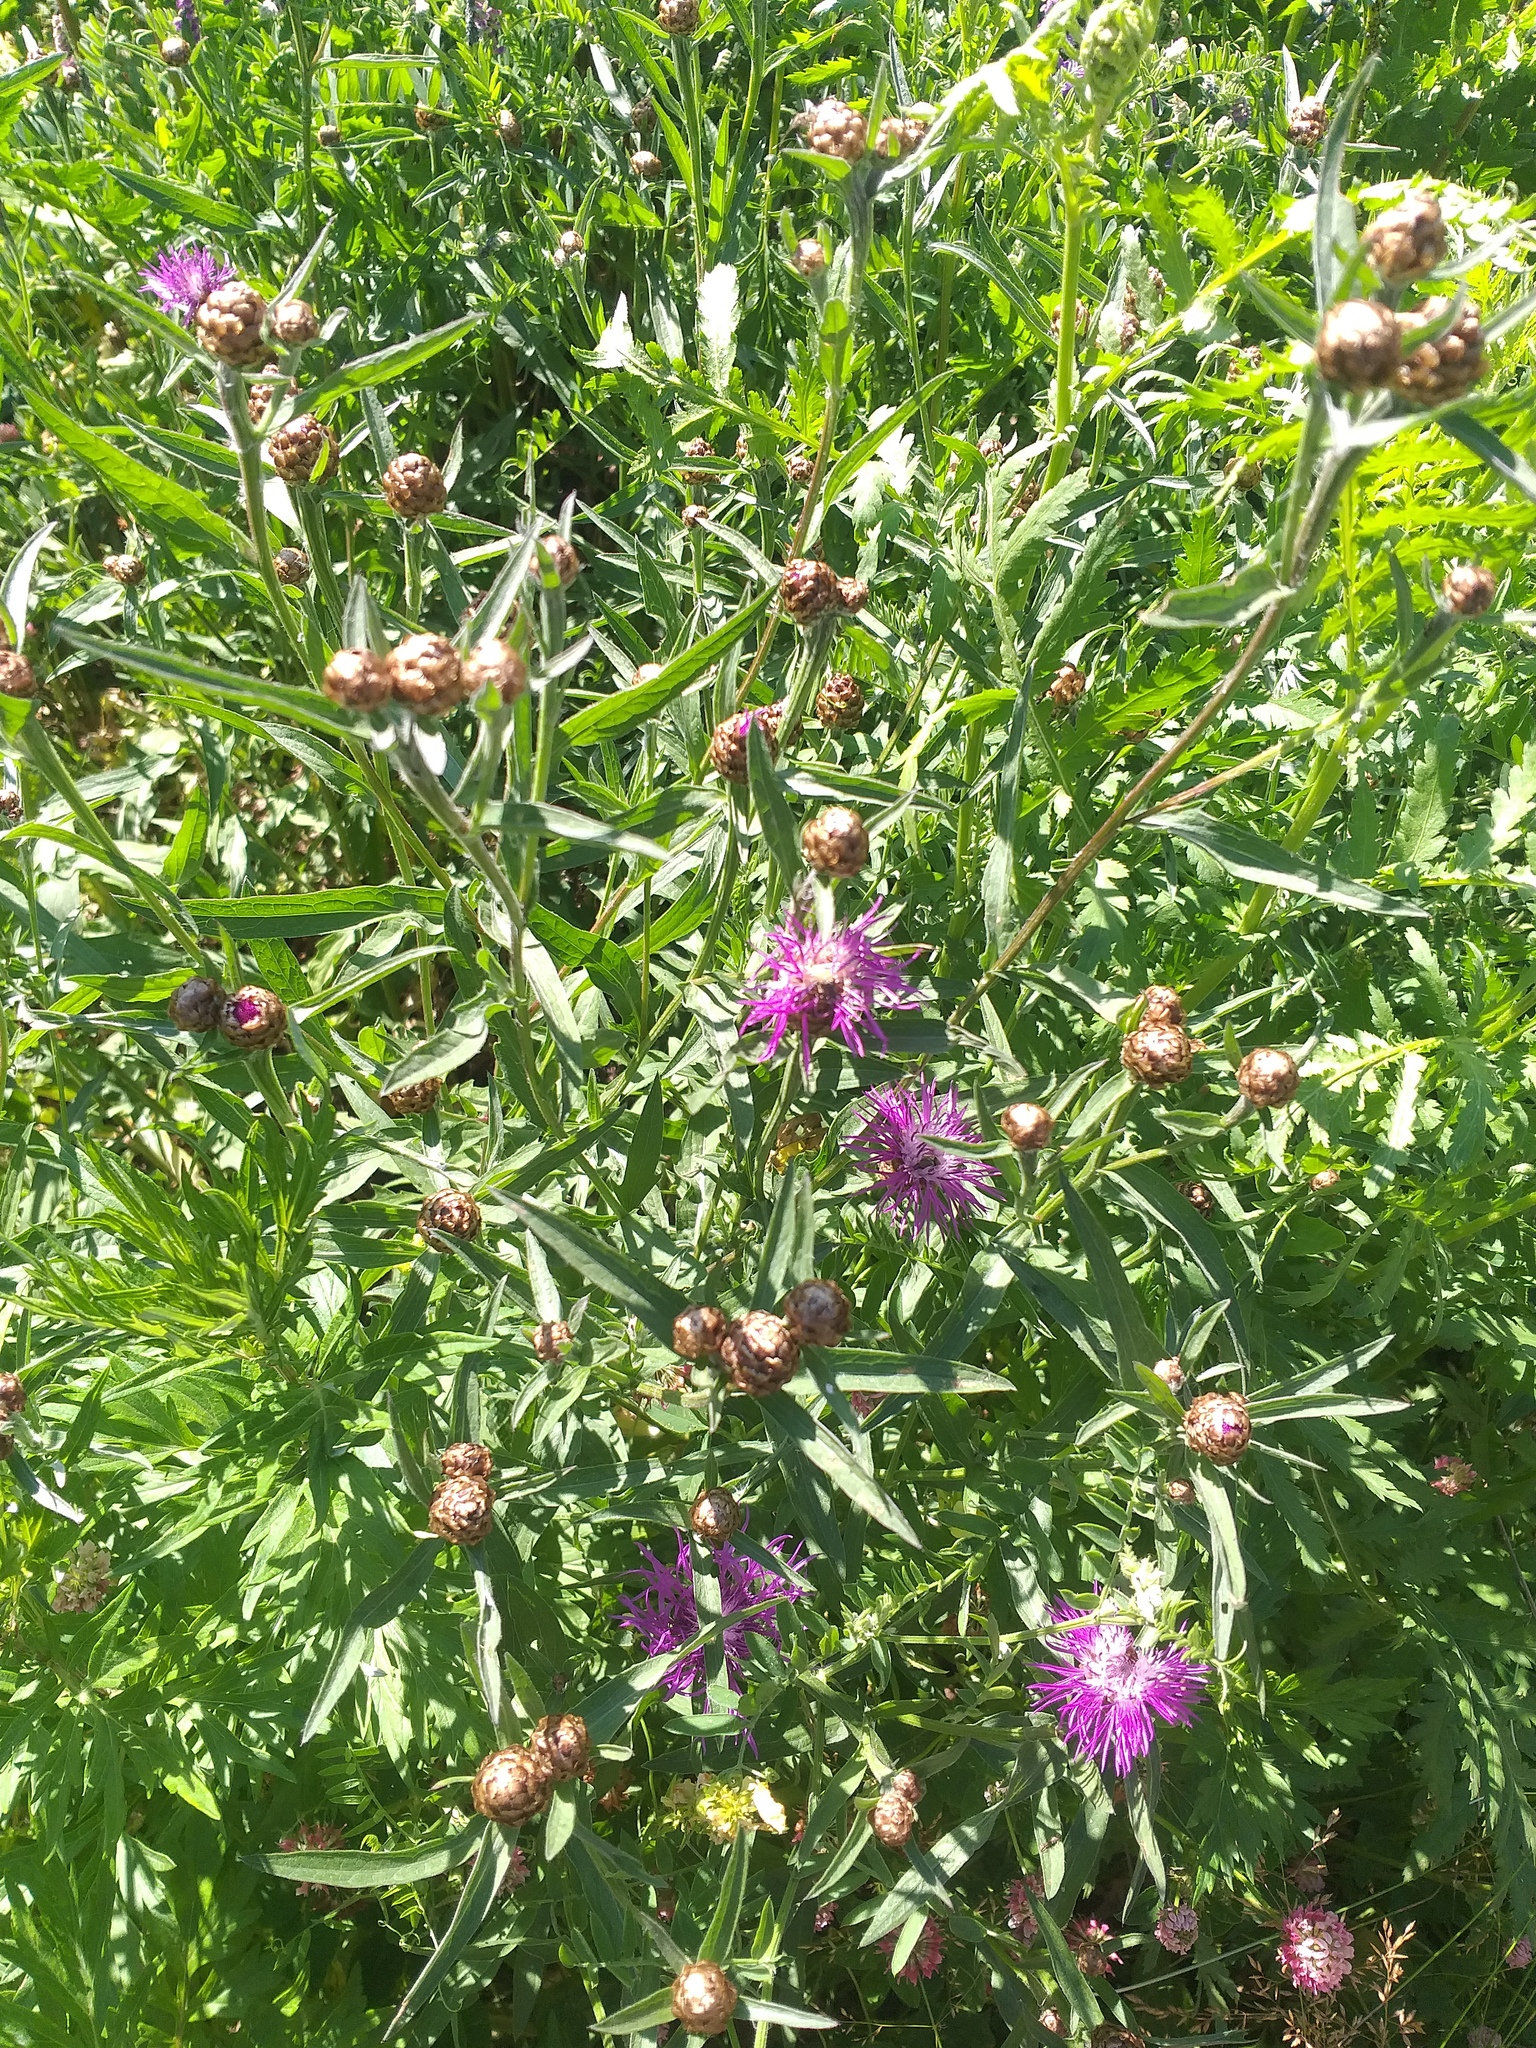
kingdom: Plantae
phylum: Tracheophyta
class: Magnoliopsida
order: Asterales
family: Asteraceae
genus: Centaurea
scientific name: Centaurea jacea
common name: Brown knapweed
